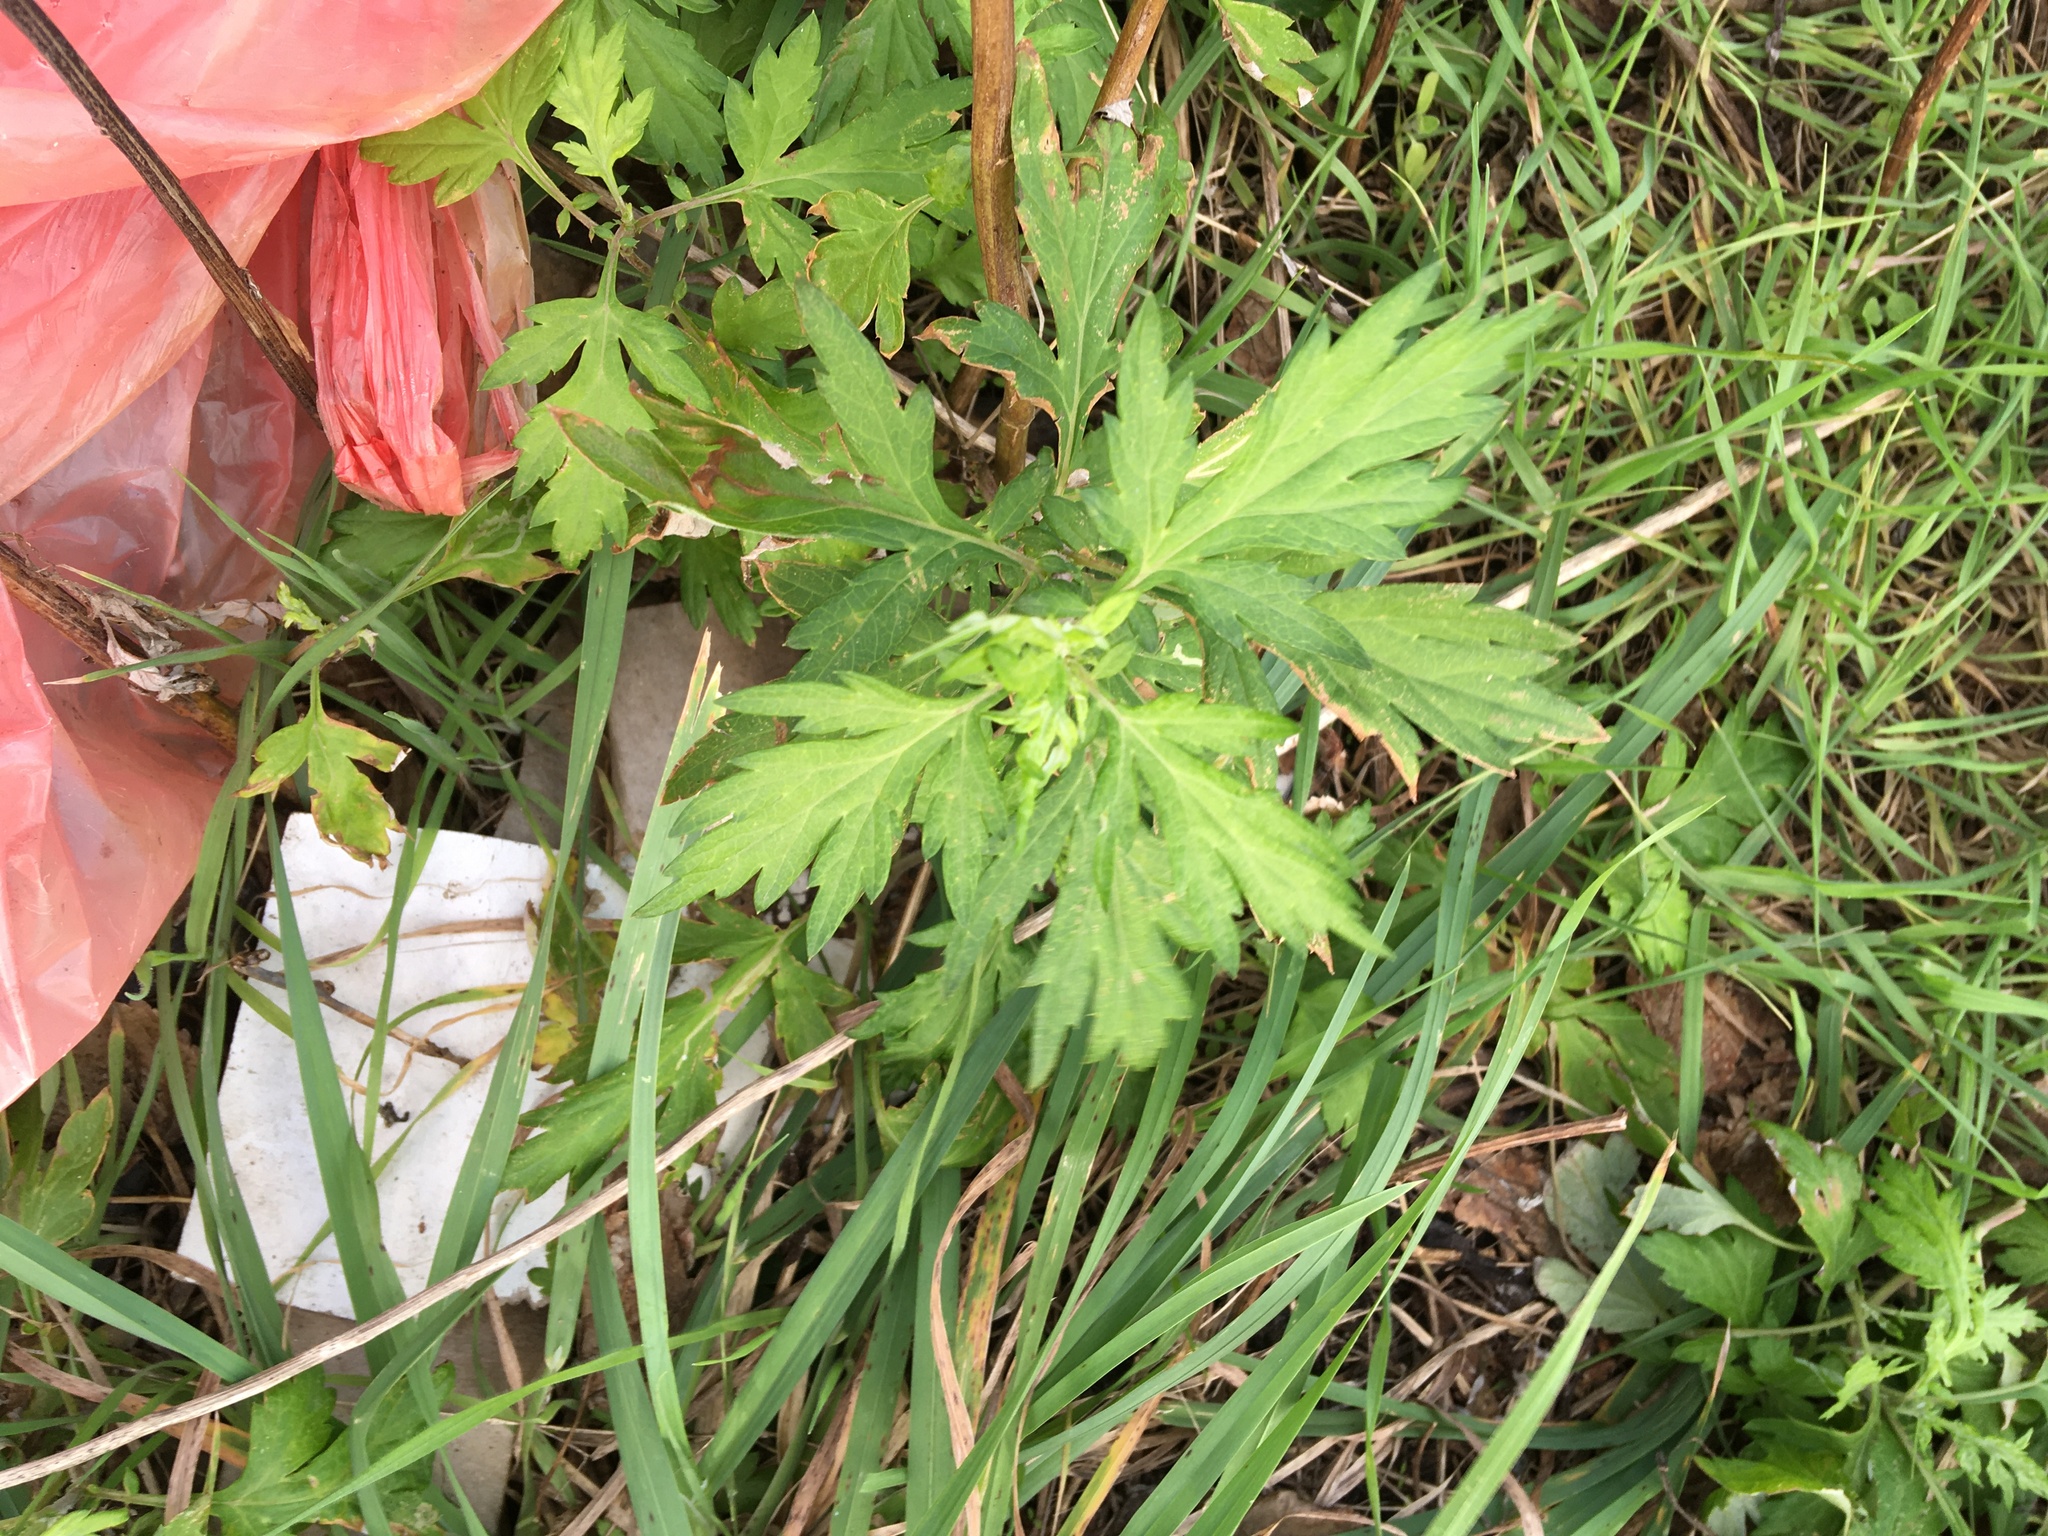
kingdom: Plantae
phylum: Tracheophyta
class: Magnoliopsida
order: Asterales
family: Asteraceae
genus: Artemisia
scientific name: Artemisia vulgaris
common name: Mugwort
